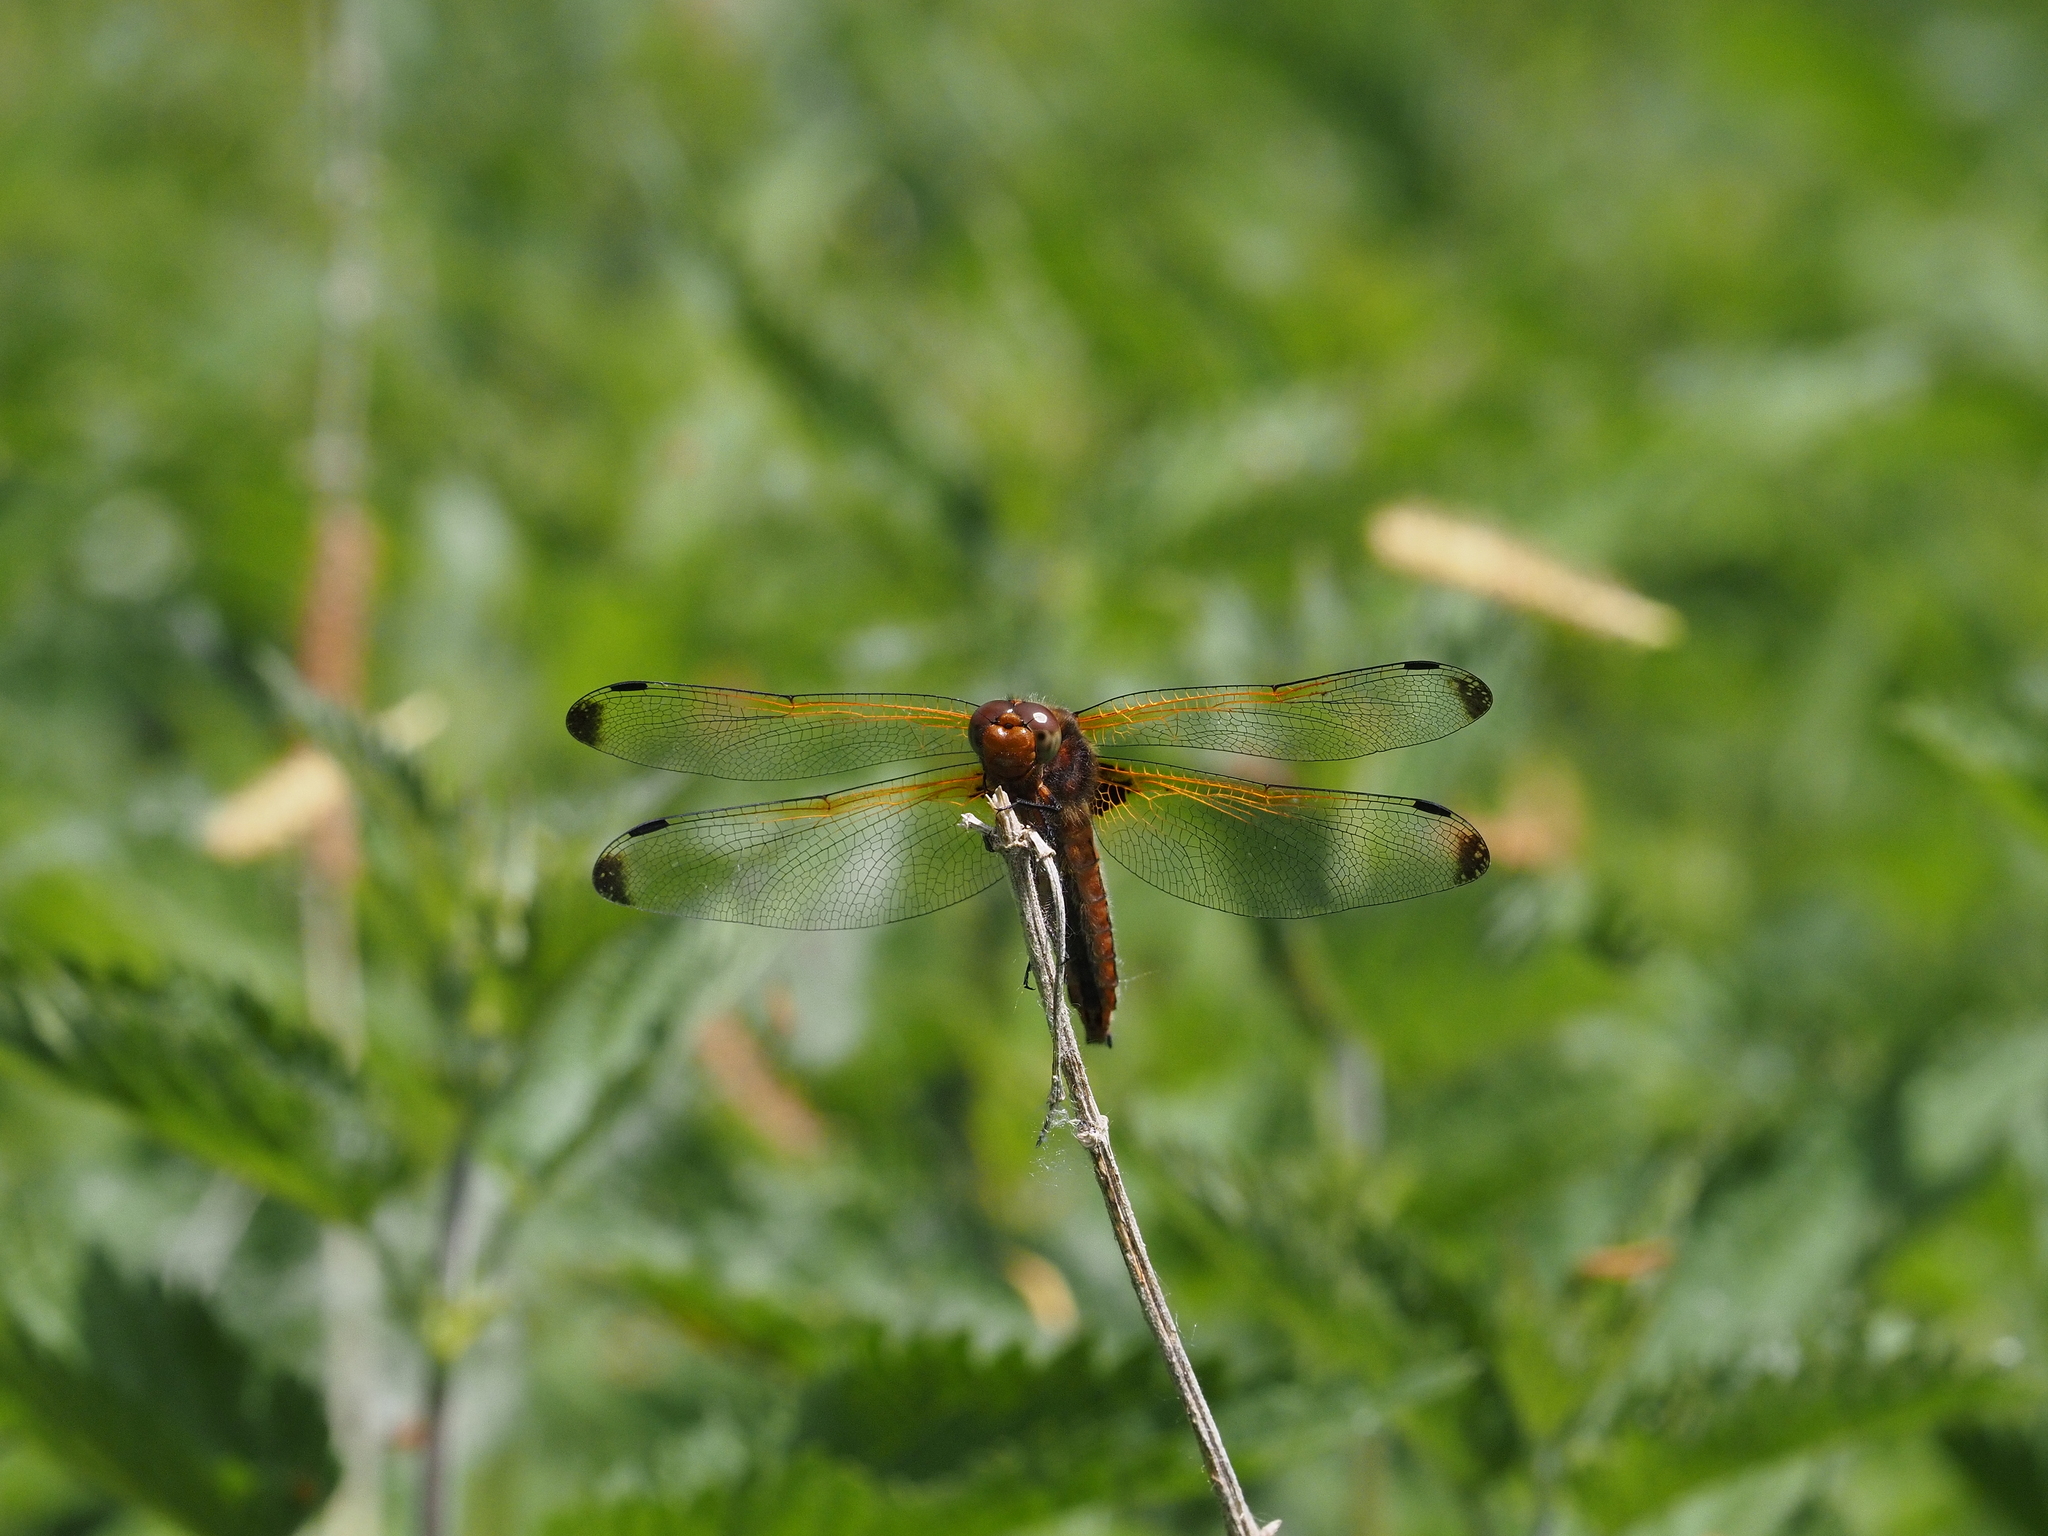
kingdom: Animalia
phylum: Arthropoda
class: Insecta
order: Odonata
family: Libellulidae
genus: Libellula
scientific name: Libellula fulva
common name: Blue chaser
